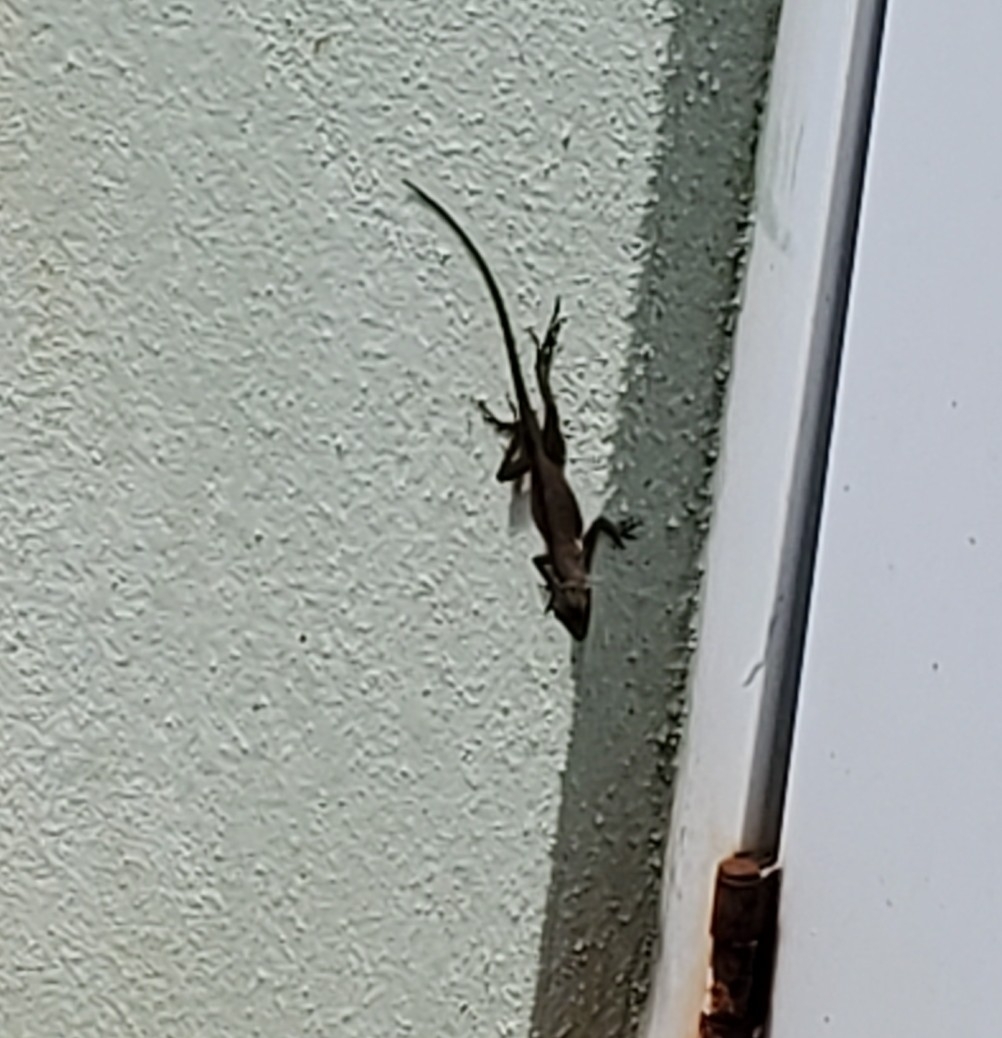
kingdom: Animalia
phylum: Chordata
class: Squamata
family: Dactyloidae
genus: Anolis
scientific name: Anolis cristatellus
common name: Crested anole
